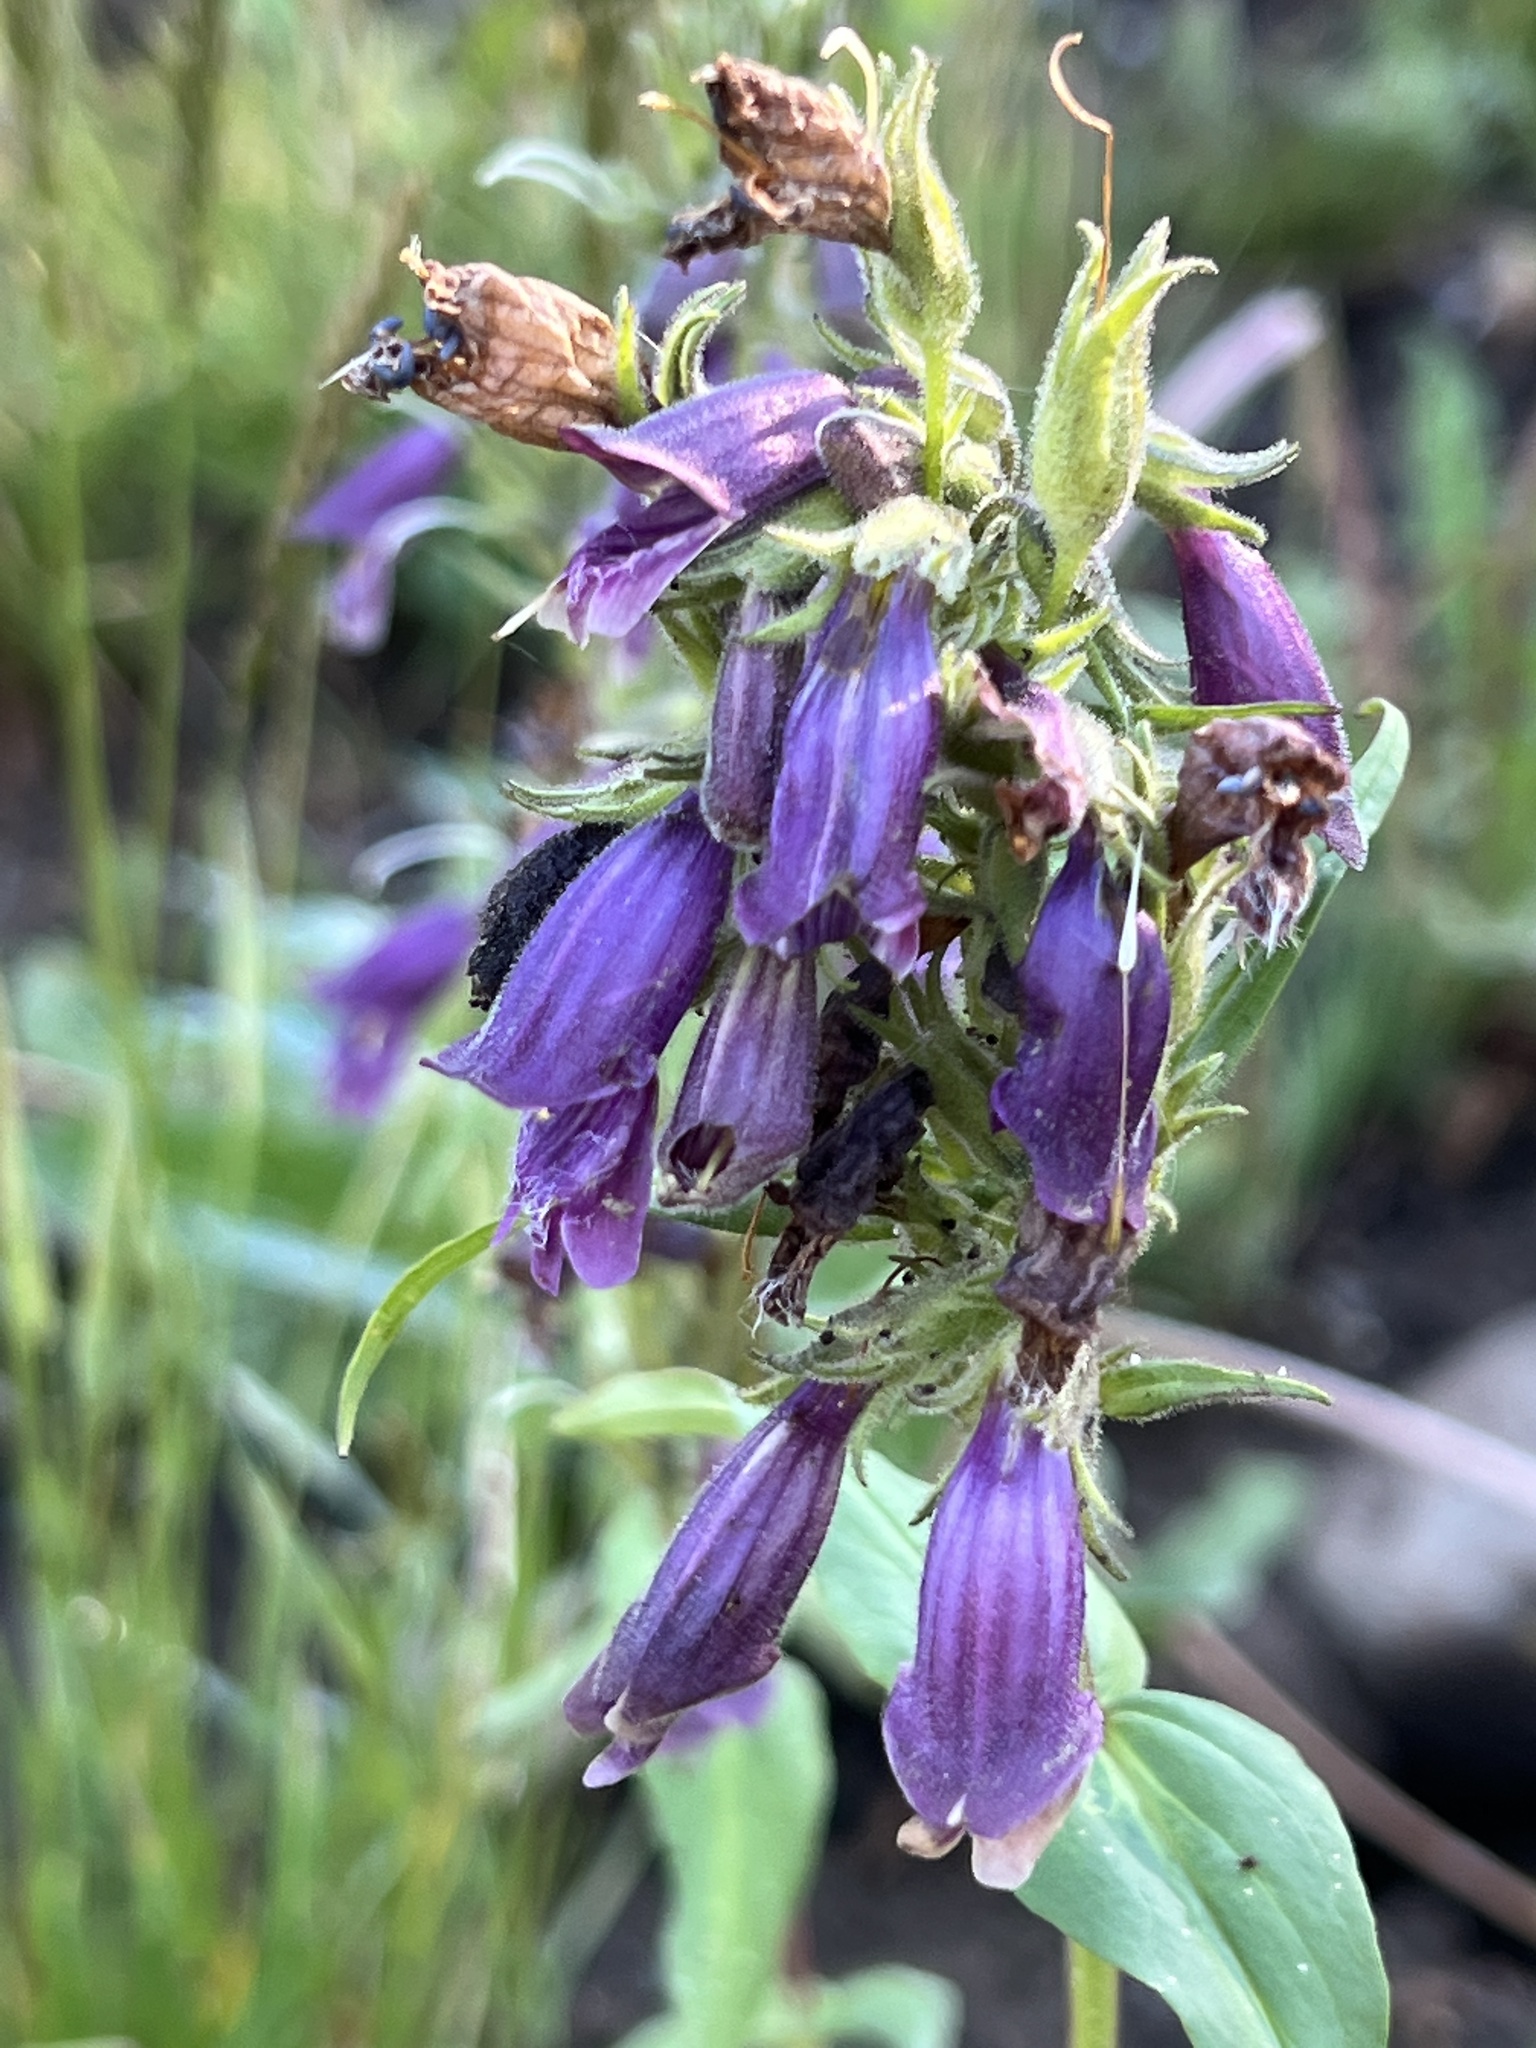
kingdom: Plantae
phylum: Tracheophyta
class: Magnoliopsida
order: Lamiales
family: Plantaginaceae
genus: Penstemon
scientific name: Penstemon whippleanus
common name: Whipple's penstemon
